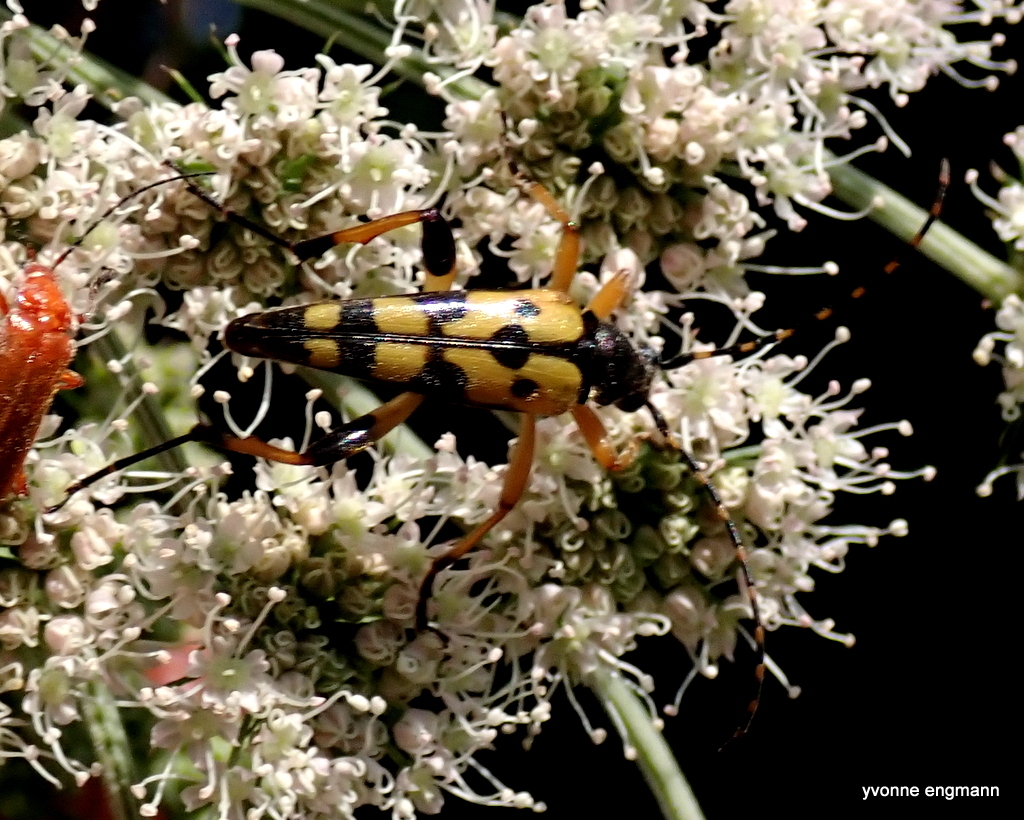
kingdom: Animalia
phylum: Arthropoda
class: Insecta
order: Coleoptera
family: Cerambycidae
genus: Rutpela
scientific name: Rutpela maculata
